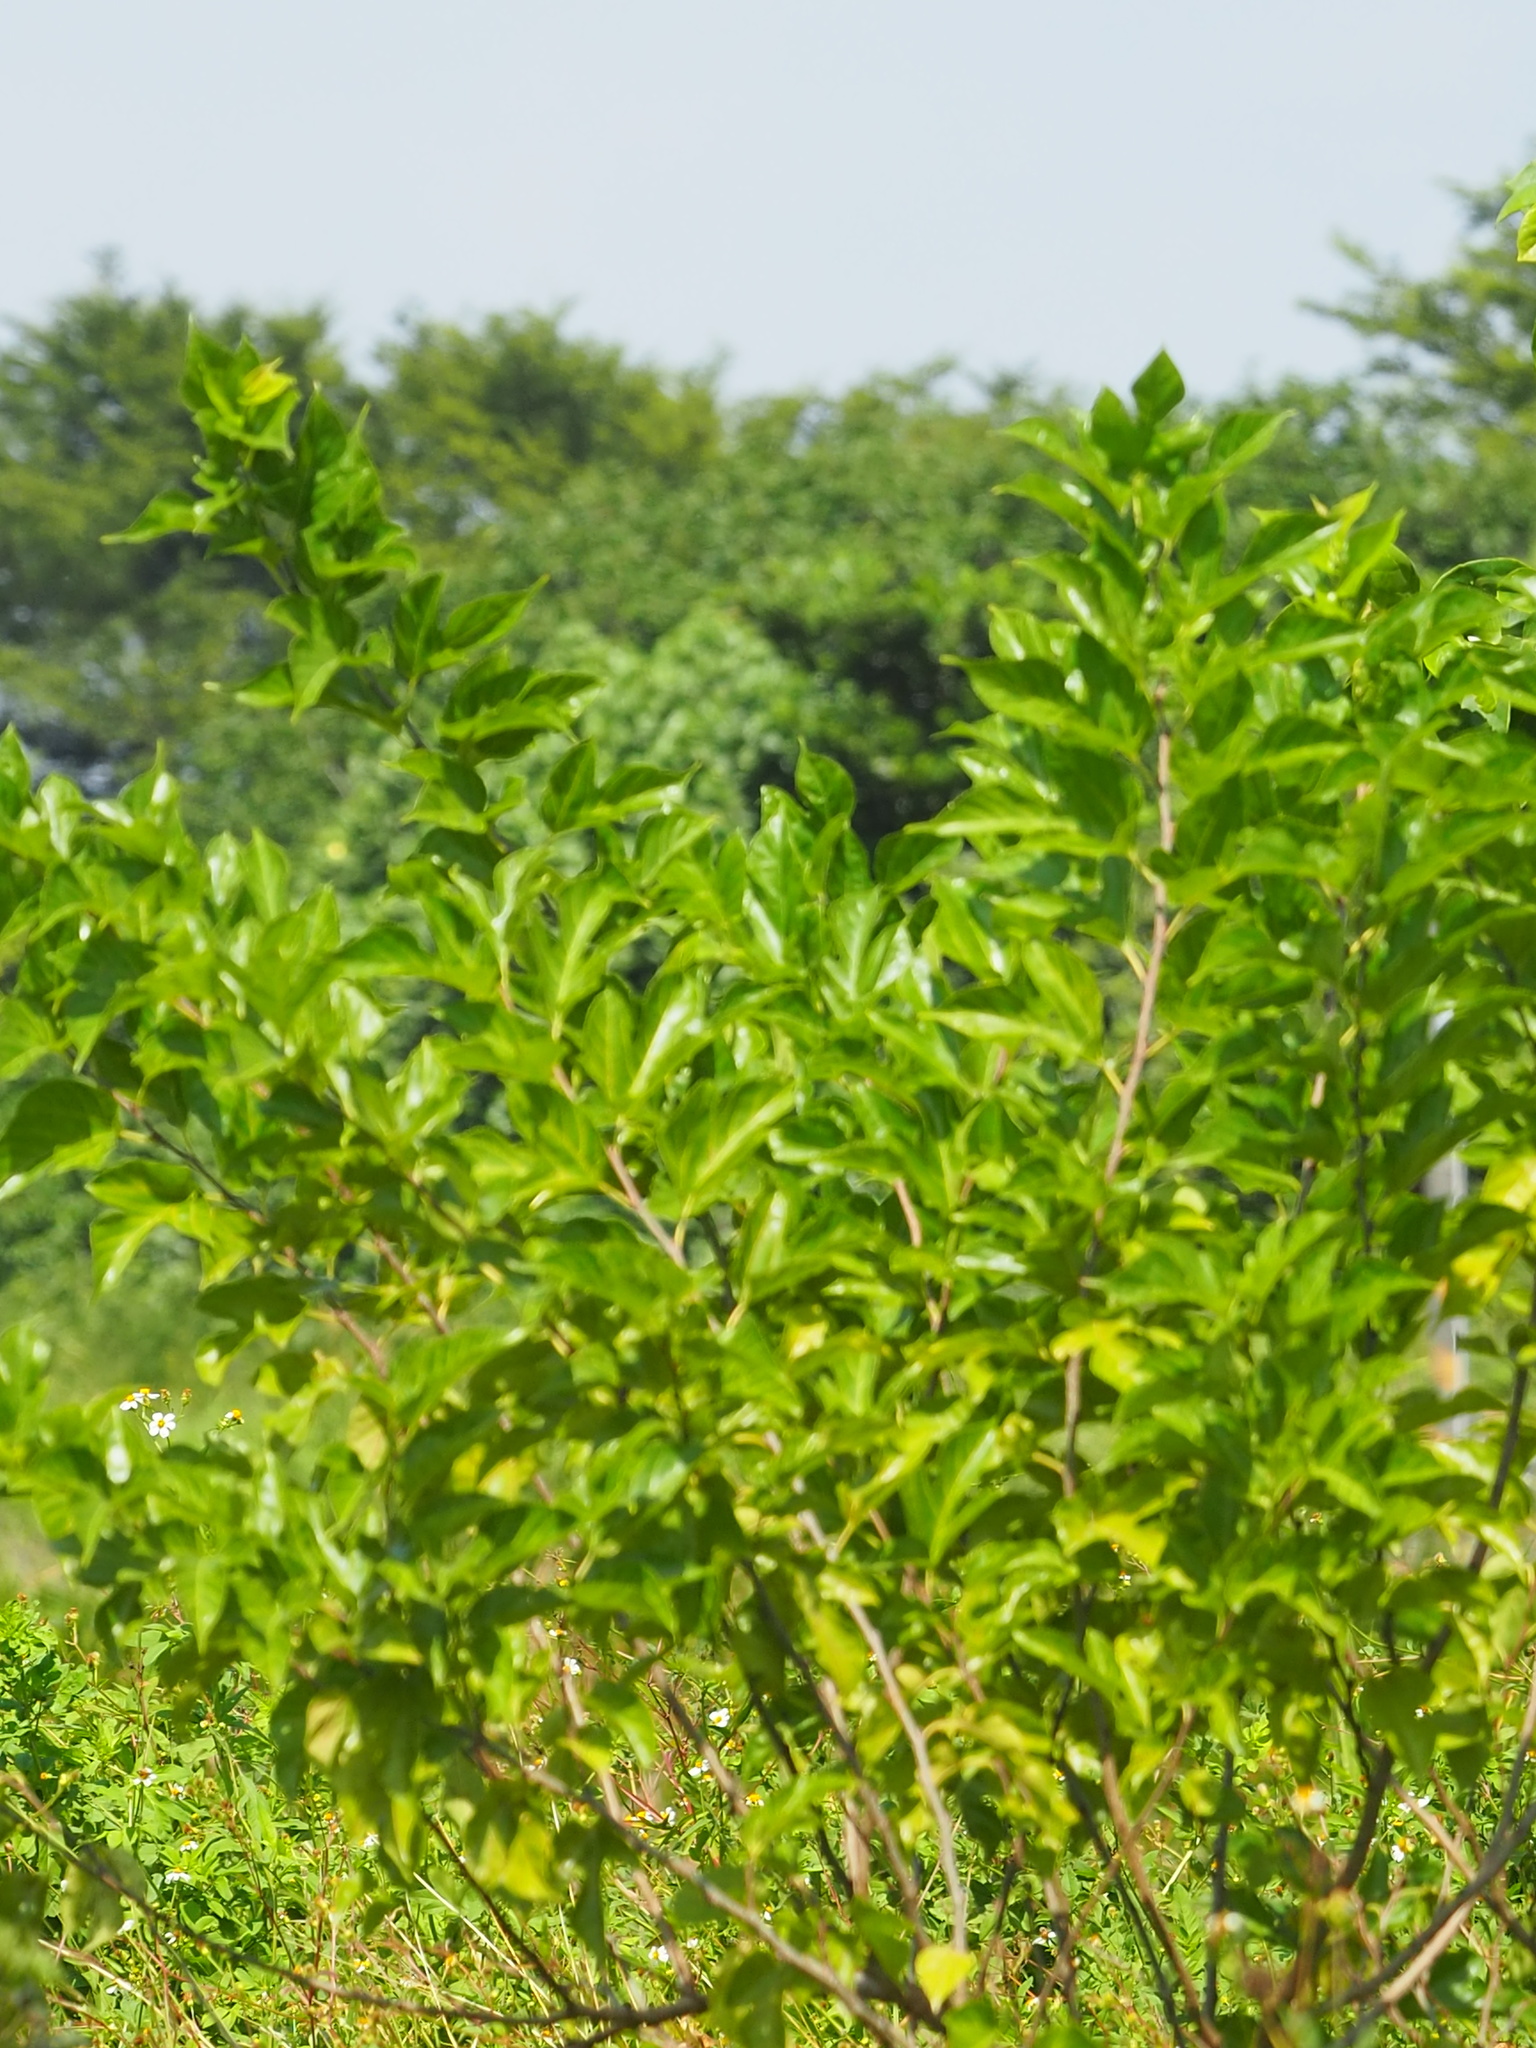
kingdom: Plantae
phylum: Tracheophyta
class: Magnoliopsida
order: Rosales
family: Moraceae
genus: Morus
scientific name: Morus indica
